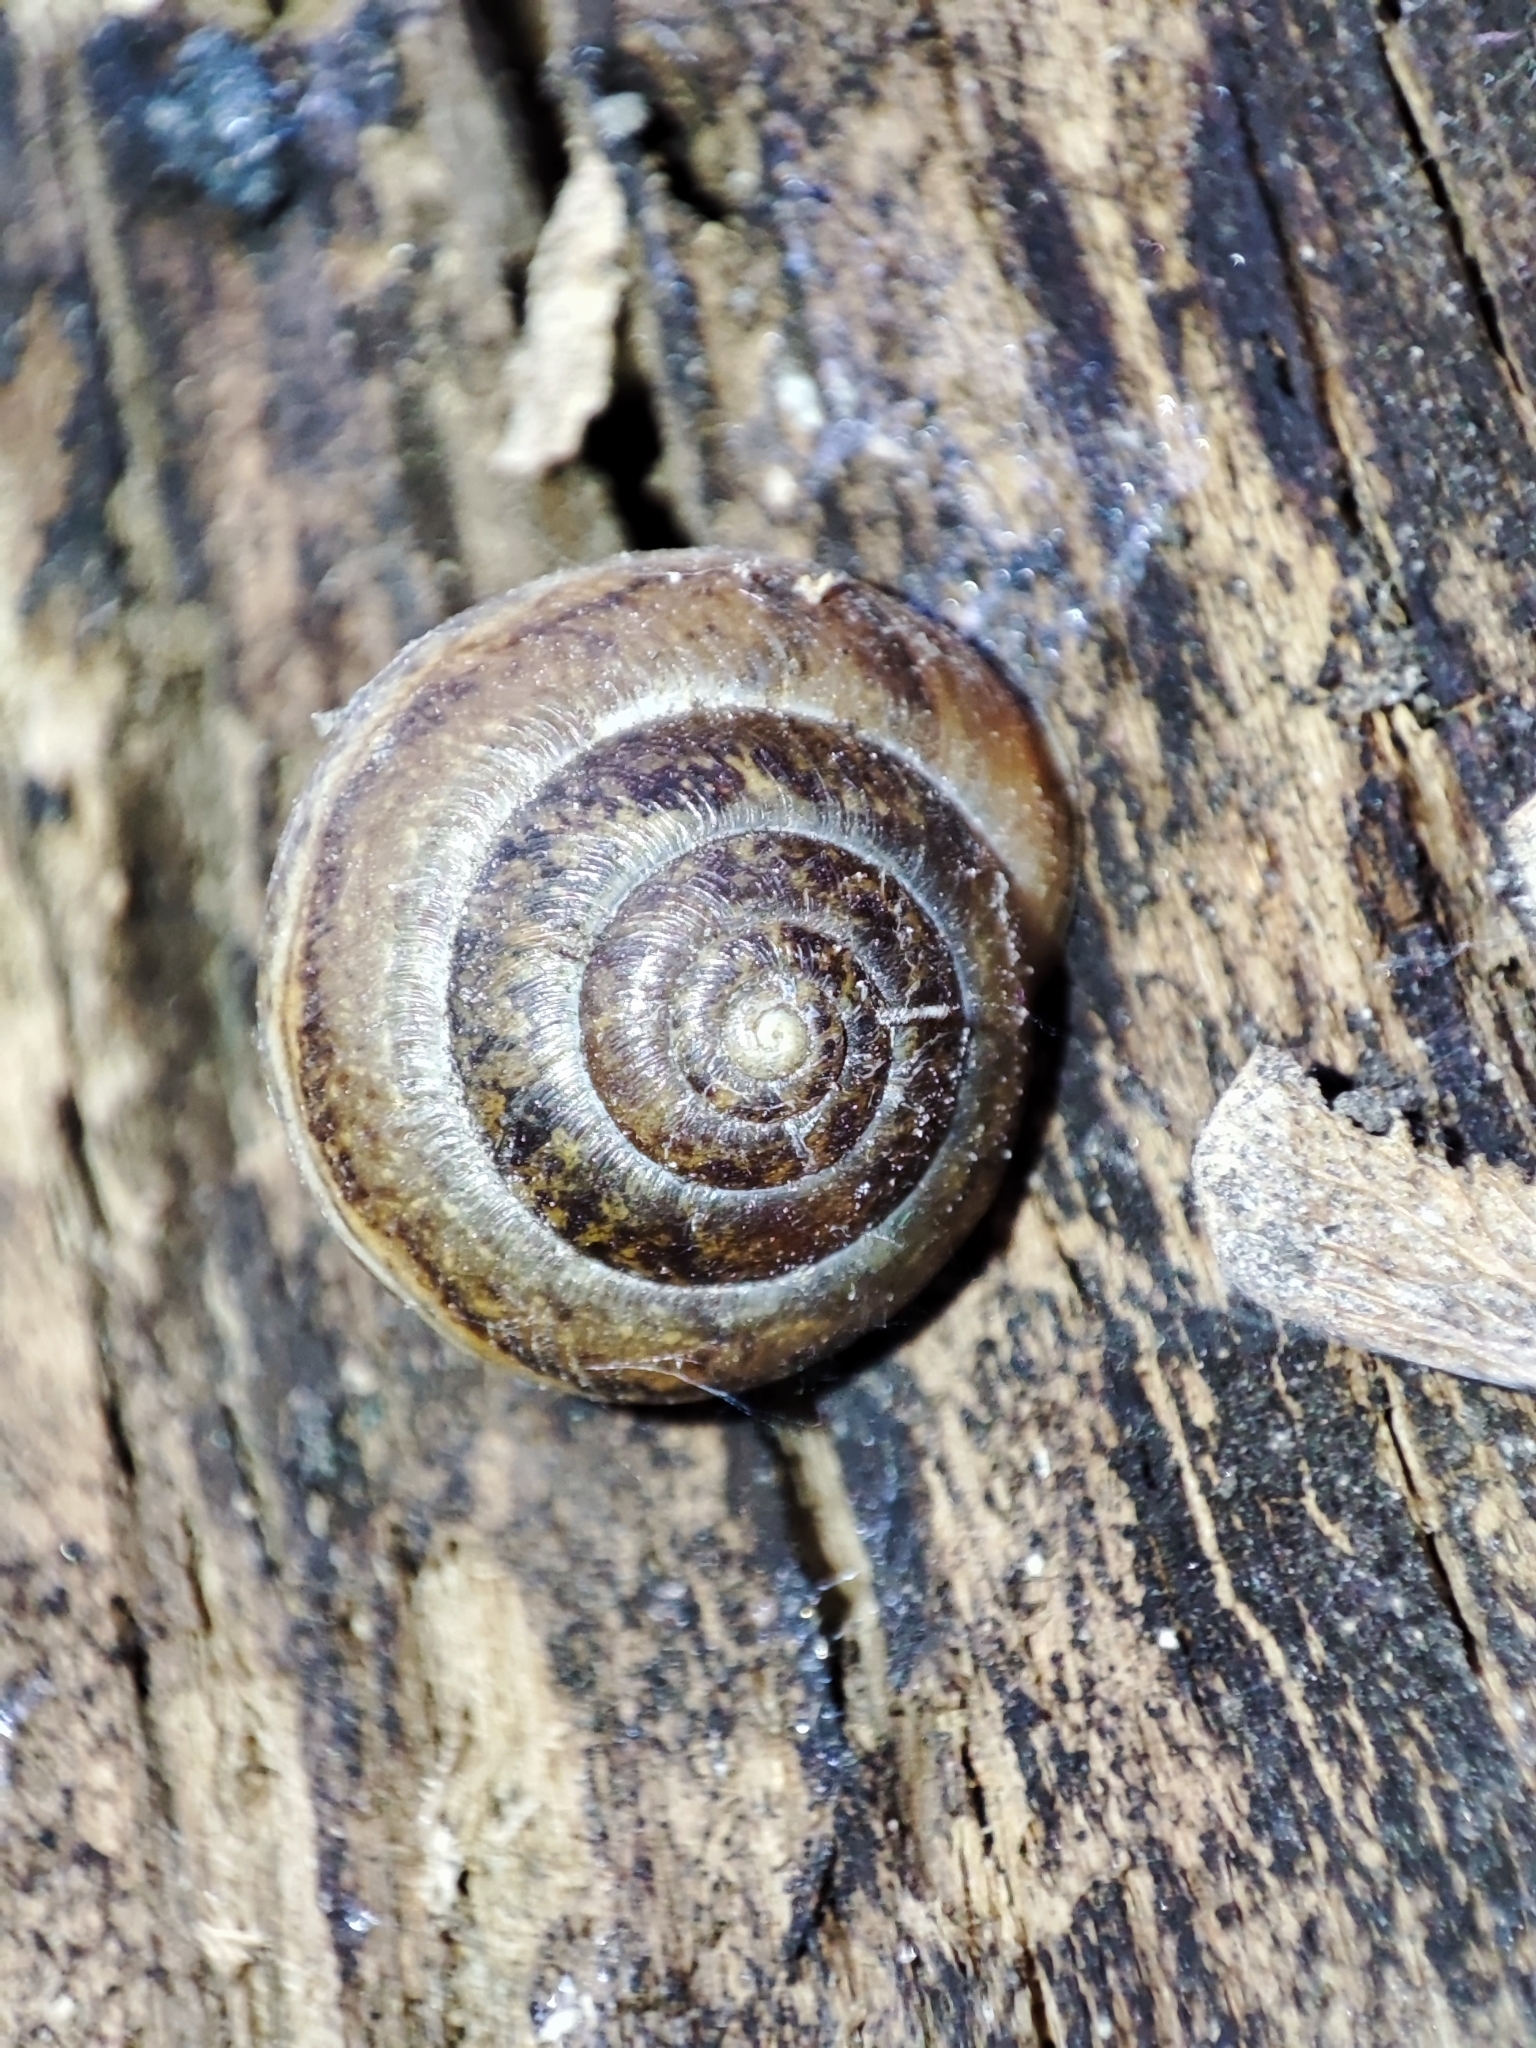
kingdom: Animalia
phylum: Mollusca
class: Gastropoda
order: Stylommatophora
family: Hygromiidae
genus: Euomphalia
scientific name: Euomphalia strigella
